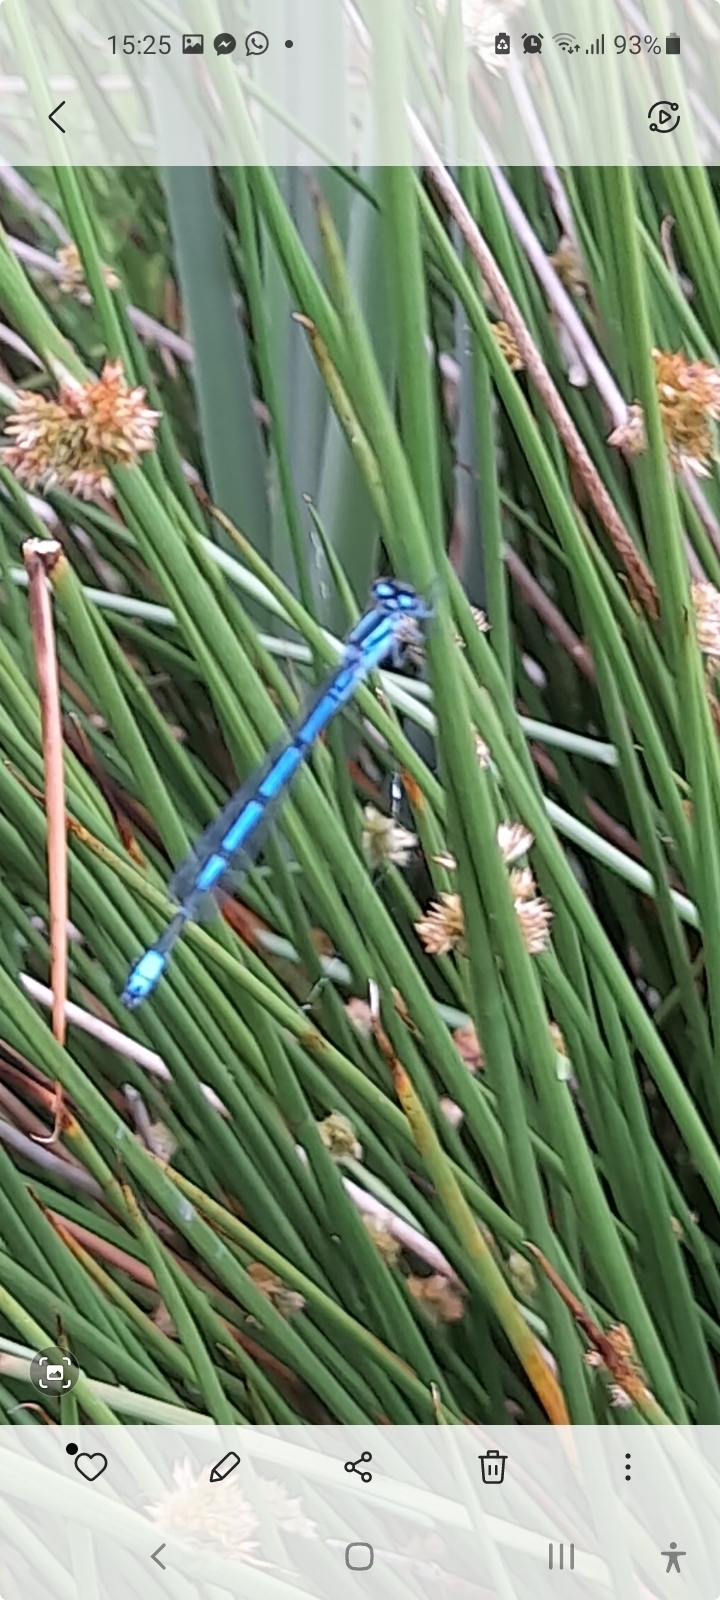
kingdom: Animalia
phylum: Arthropoda
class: Insecta
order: Odonata
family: Coenagrionidae
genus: Coenagrion
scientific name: Coenagrion puella
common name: Azure damselfly
